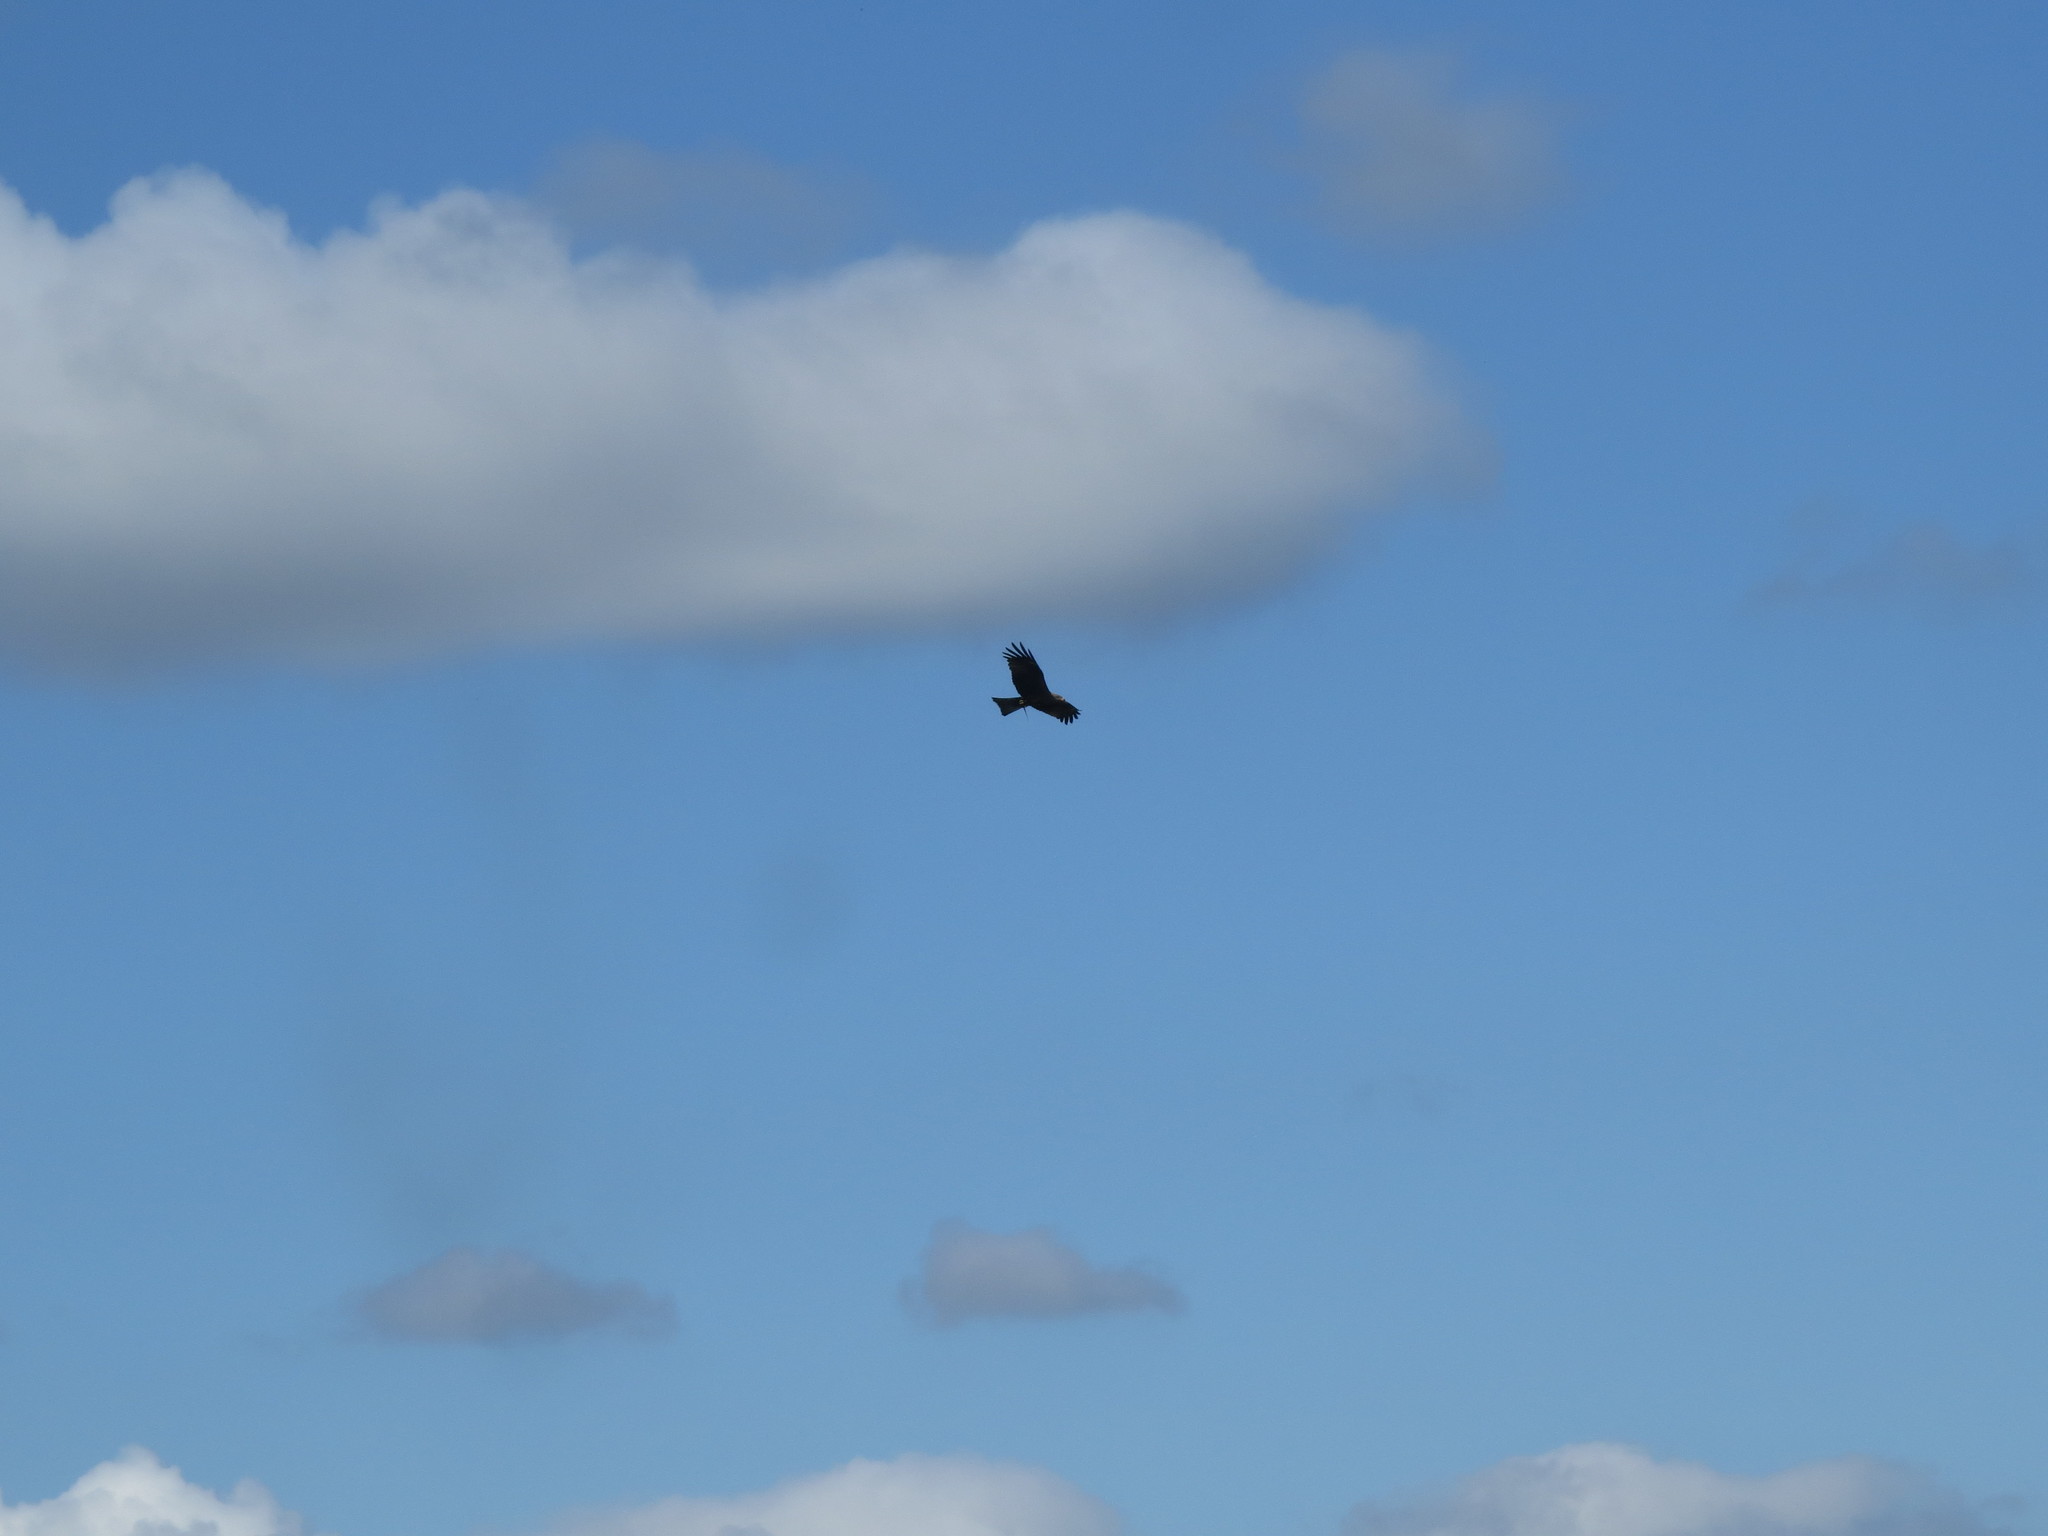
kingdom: Animalia
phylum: Chordata
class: Aves
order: Accipitriformes
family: Accipitridae
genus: Milvus
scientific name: Milvus migrans
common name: Black kite
